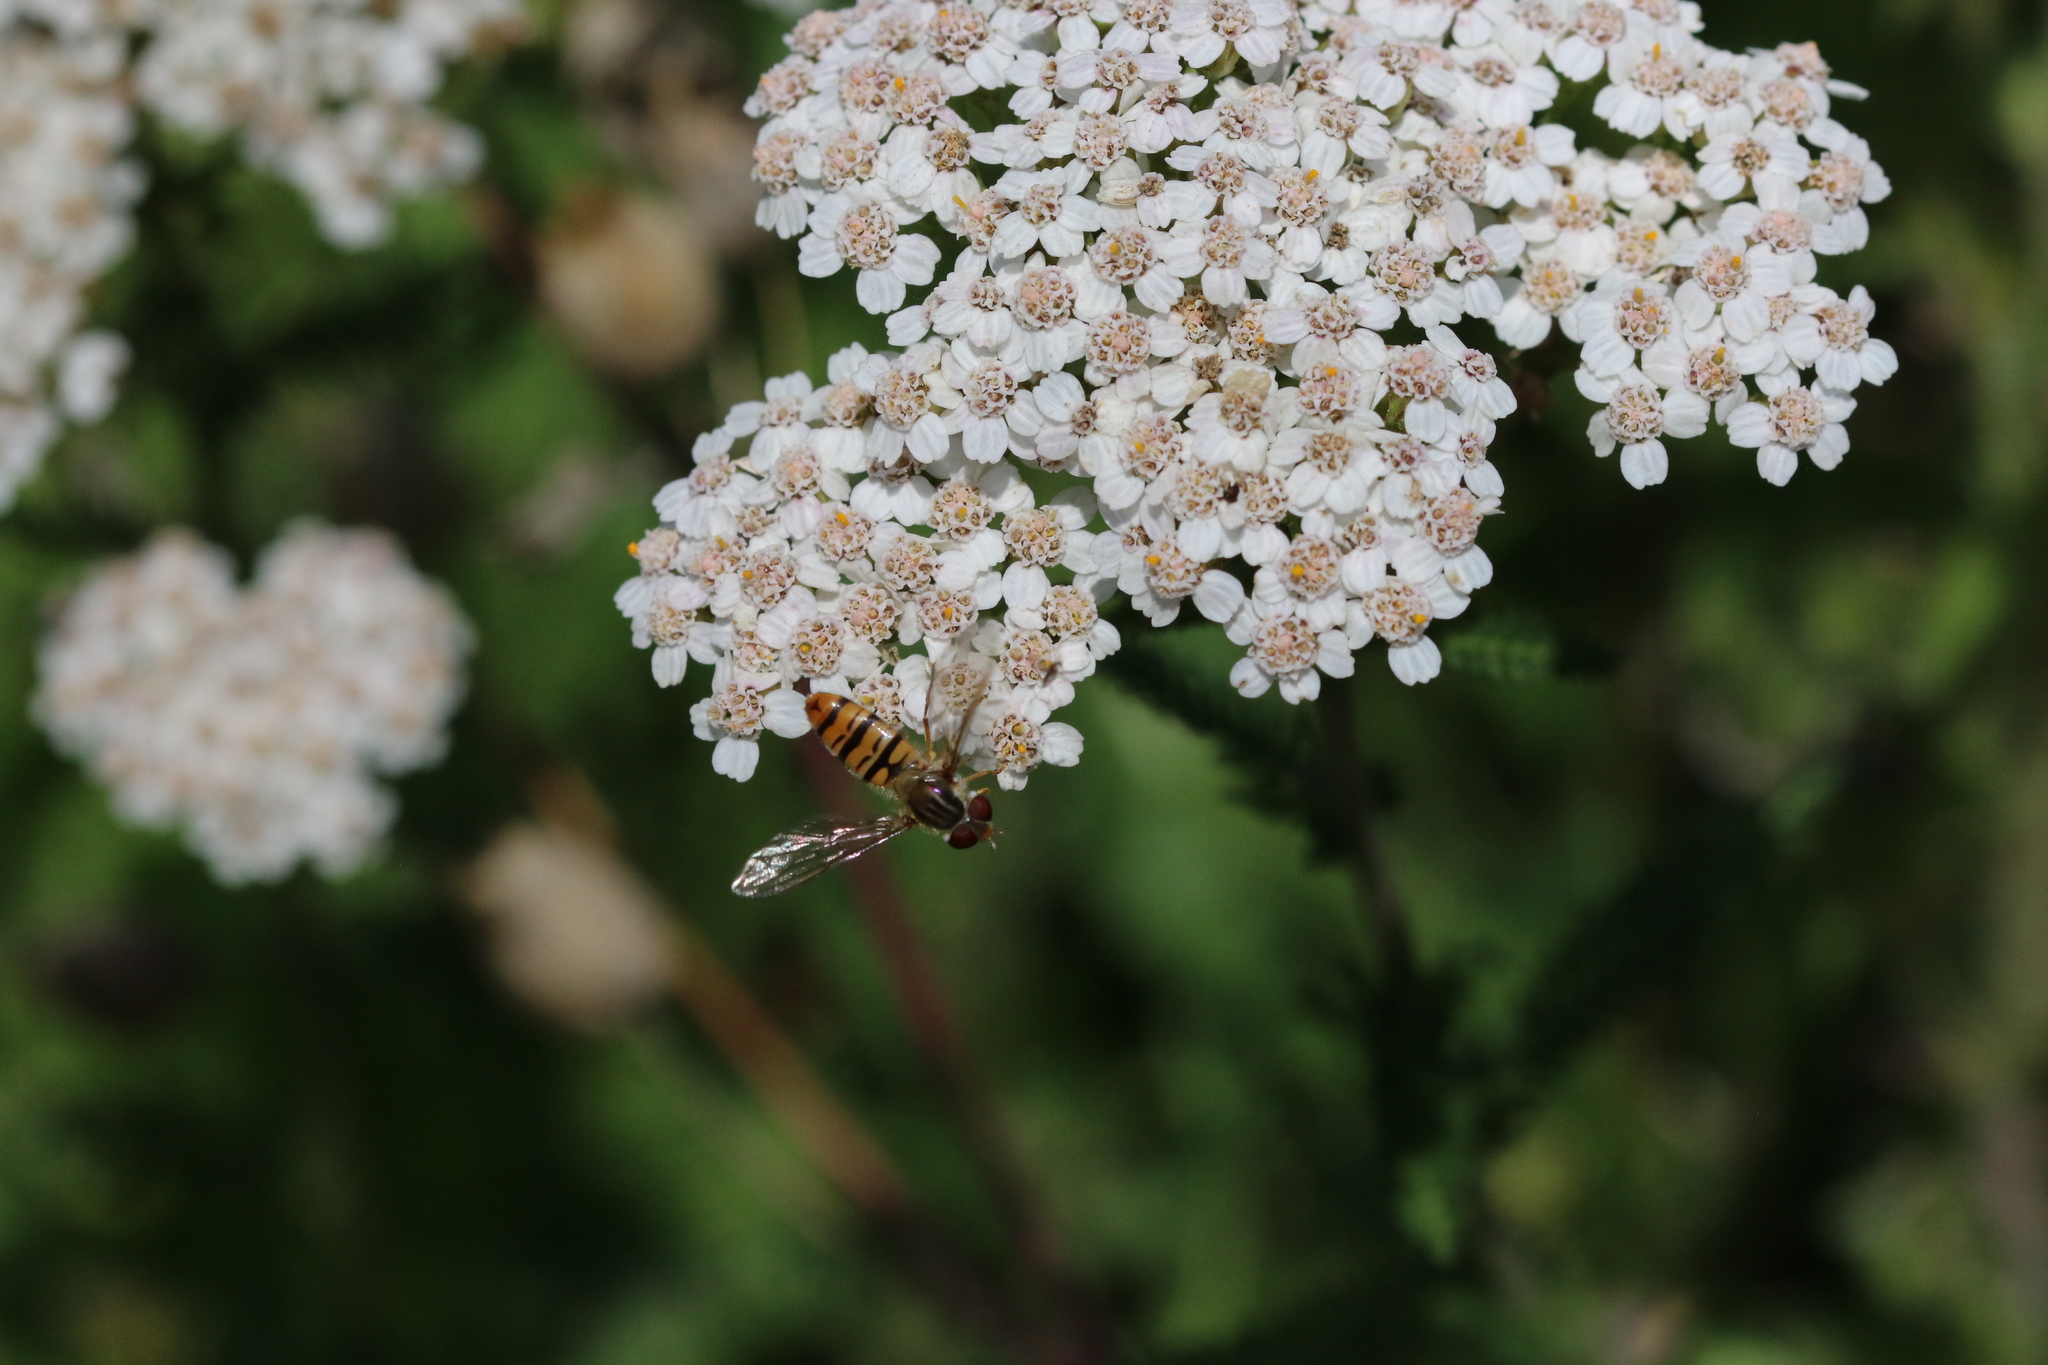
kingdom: Animalia
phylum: Arthropoda
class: Insecta
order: Diptera
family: Syrphidae
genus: Episyrphus
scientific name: Episyrphus balteatus
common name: Marmalade hoverfly
